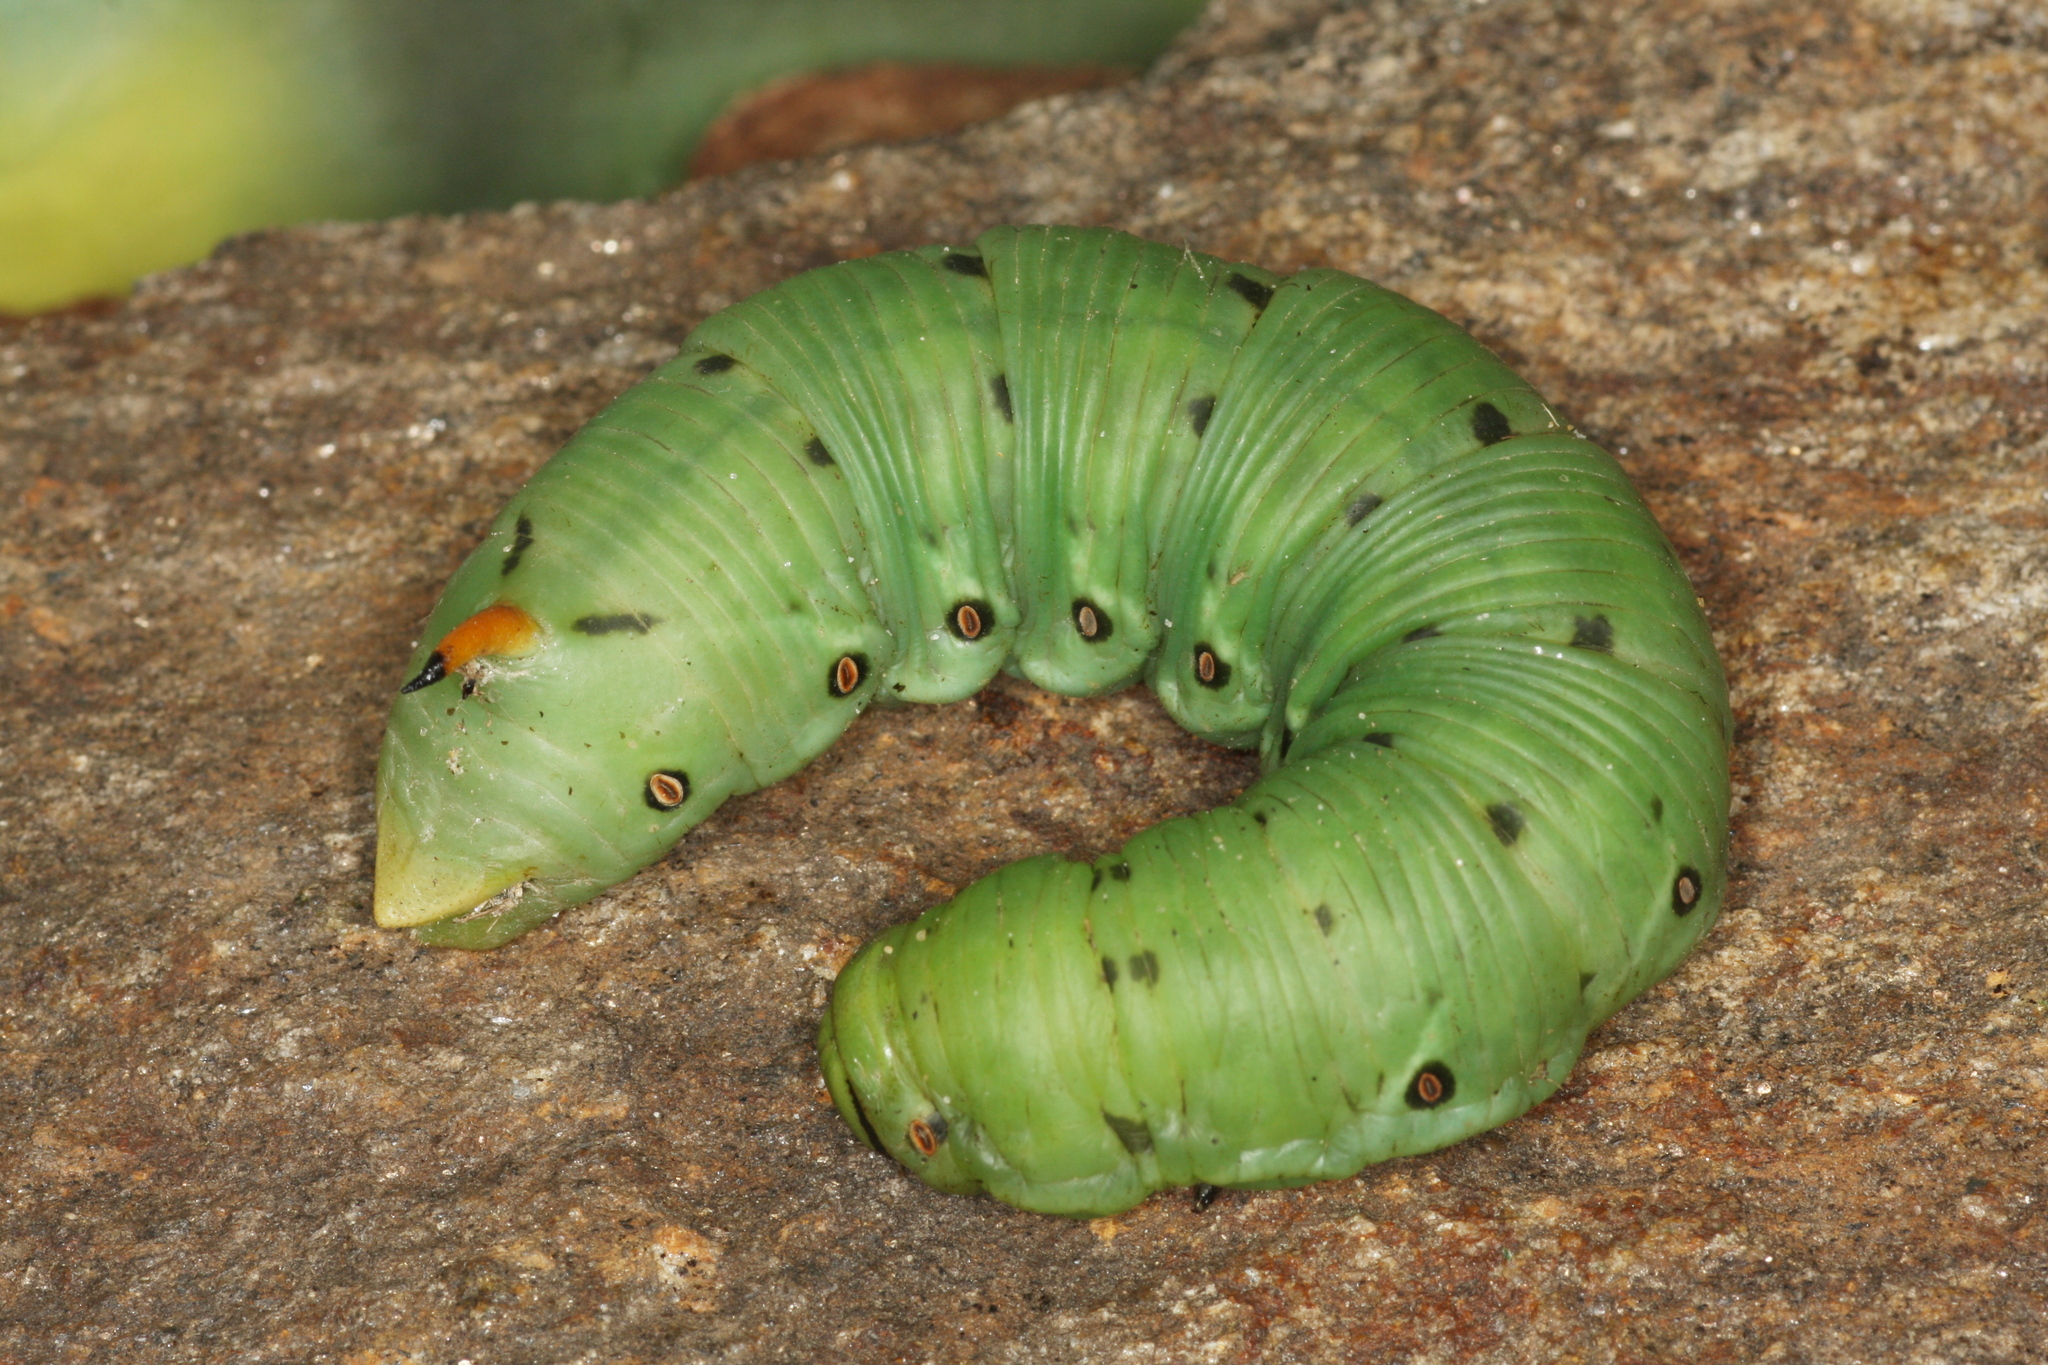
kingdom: Animalia
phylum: Arthropoda
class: Insecta
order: Lepidoptera
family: Sphingidae
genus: Agrius
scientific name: Agrius convolvuli
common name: Convolvulus hawkmoth
